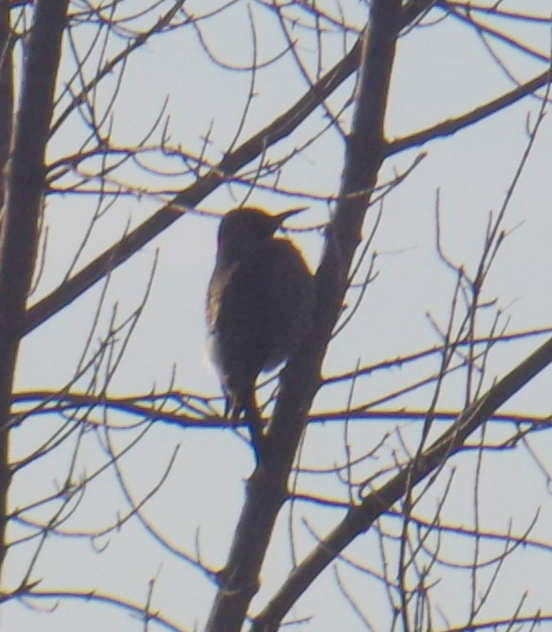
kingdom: Animalia
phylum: Chordata
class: Aves
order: Piciformes
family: Picidae
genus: Colaptes
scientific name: Colaptes auratus
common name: Northern flicker
